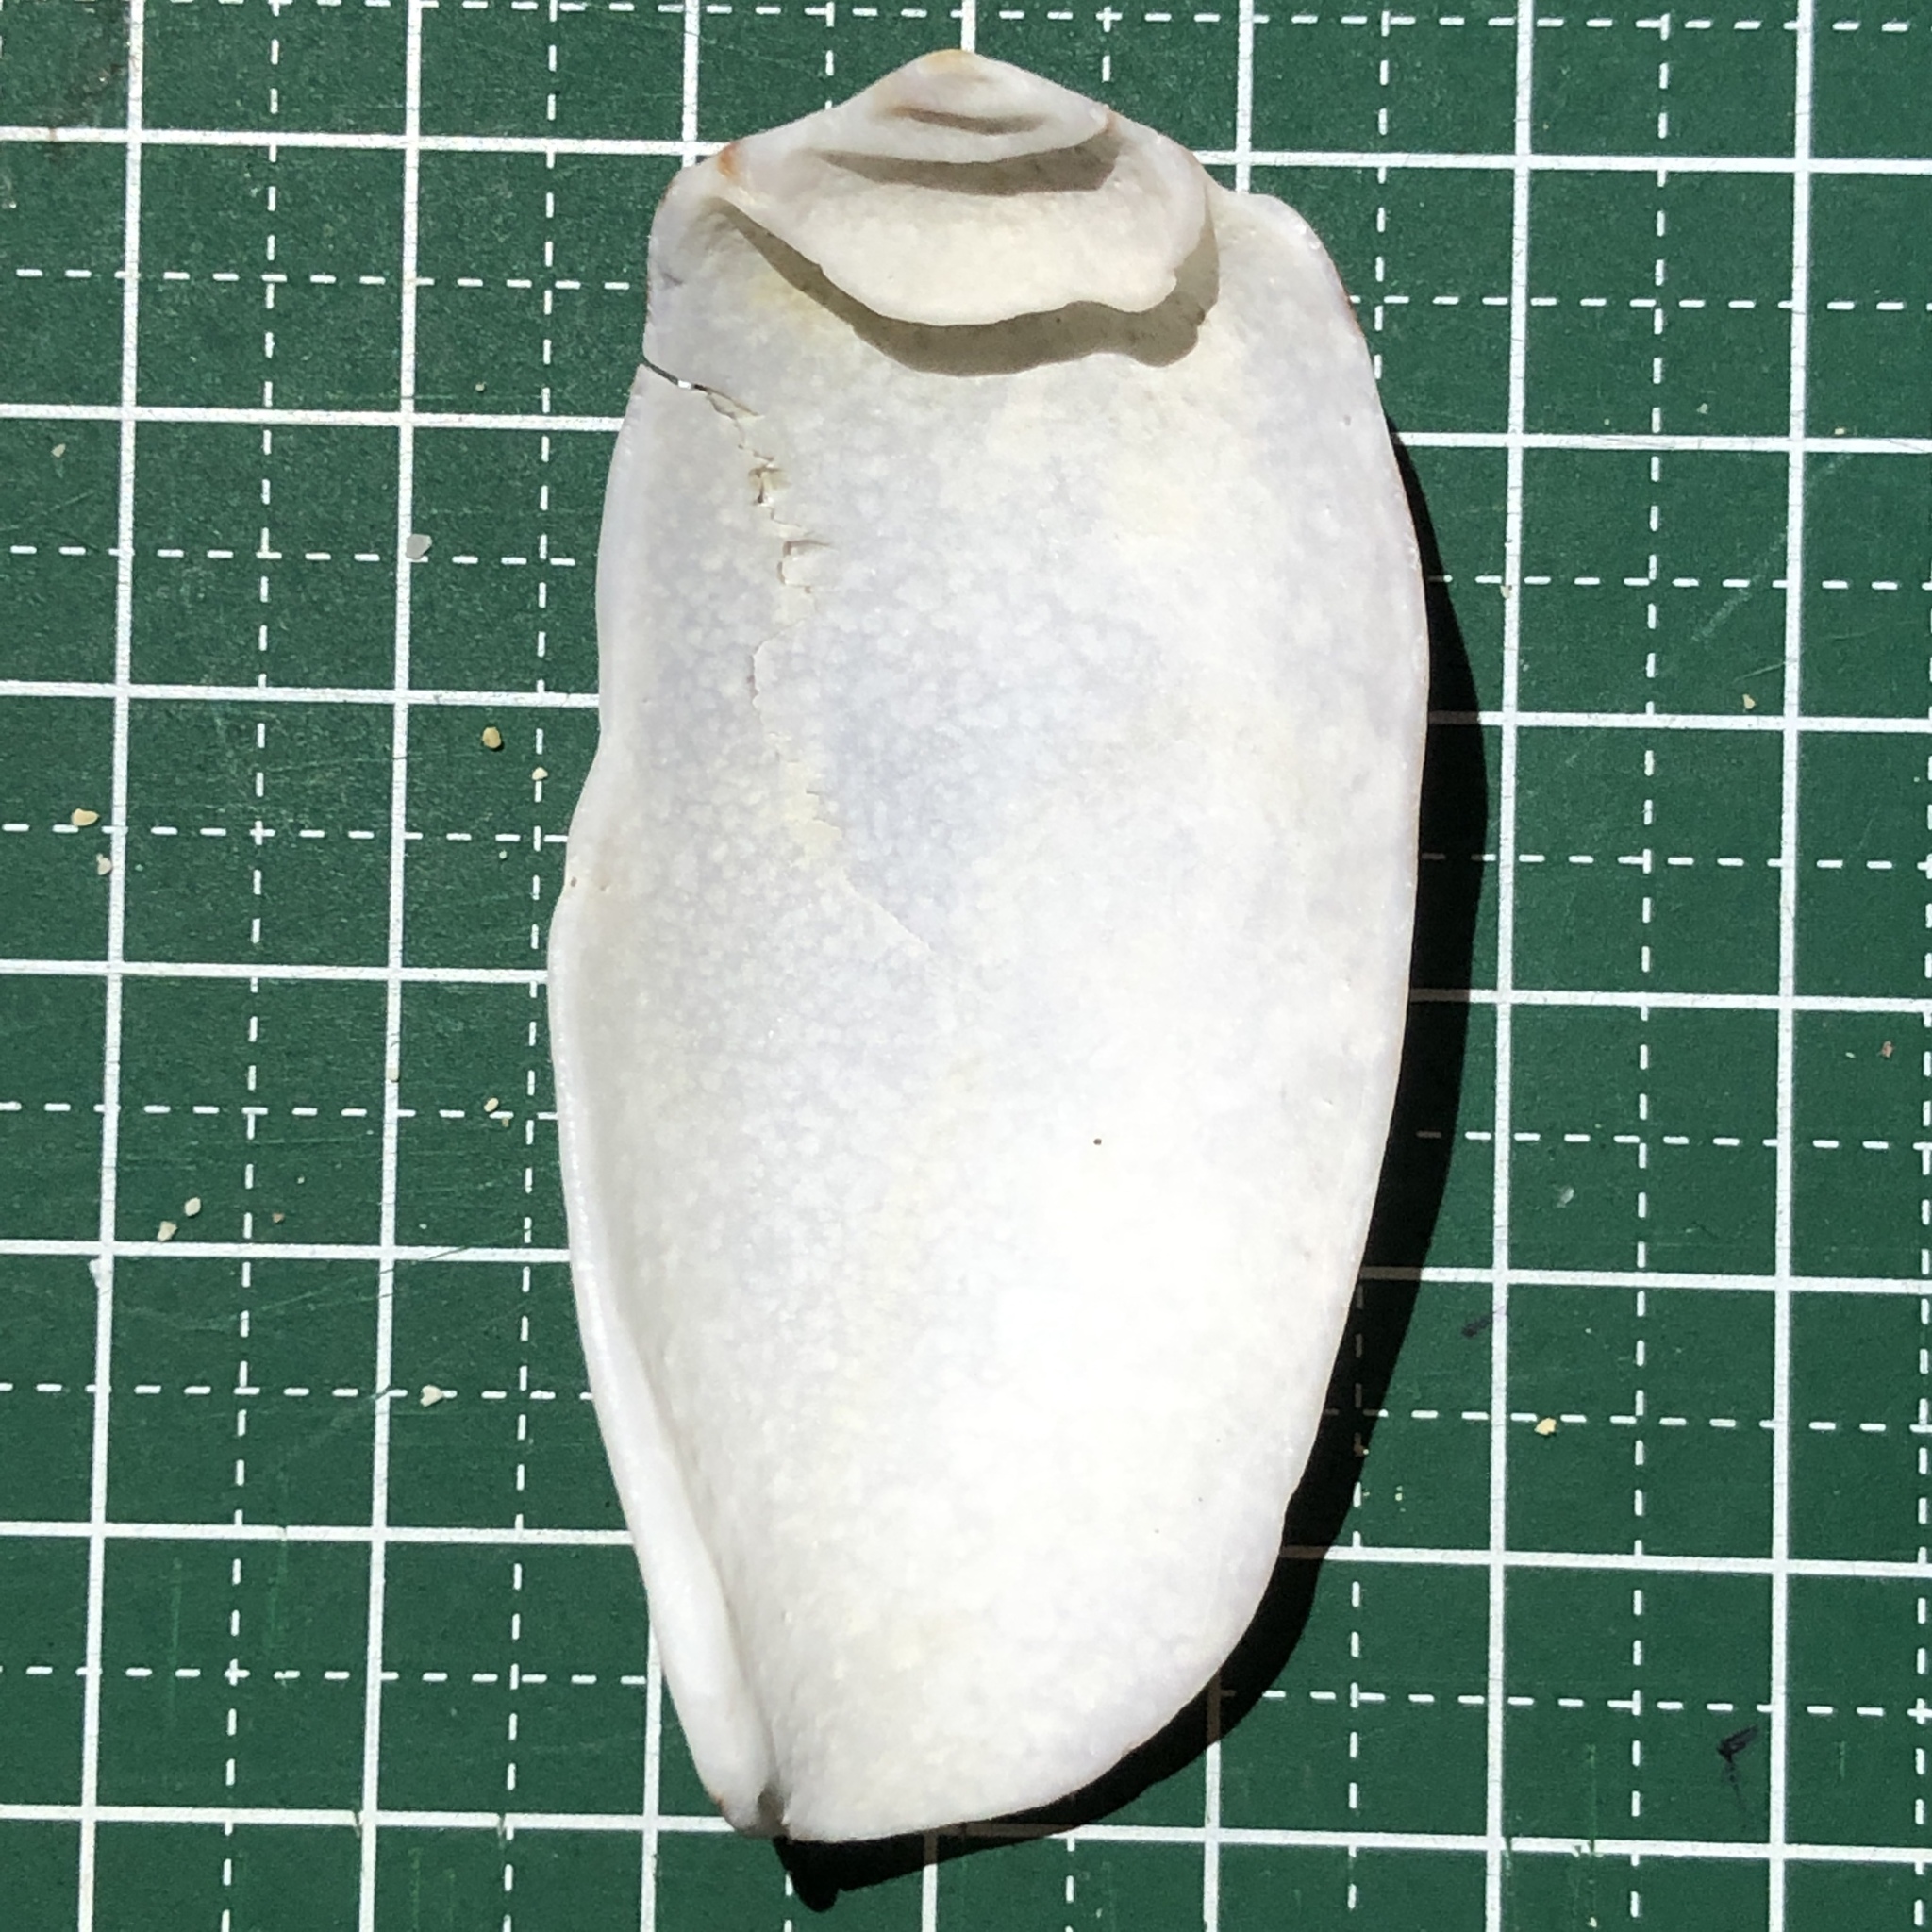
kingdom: Animalia
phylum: Mollusca
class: Gastropoda
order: Neogastropoda
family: Conidae
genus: Conus
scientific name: Conus striatus
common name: Striated cone
